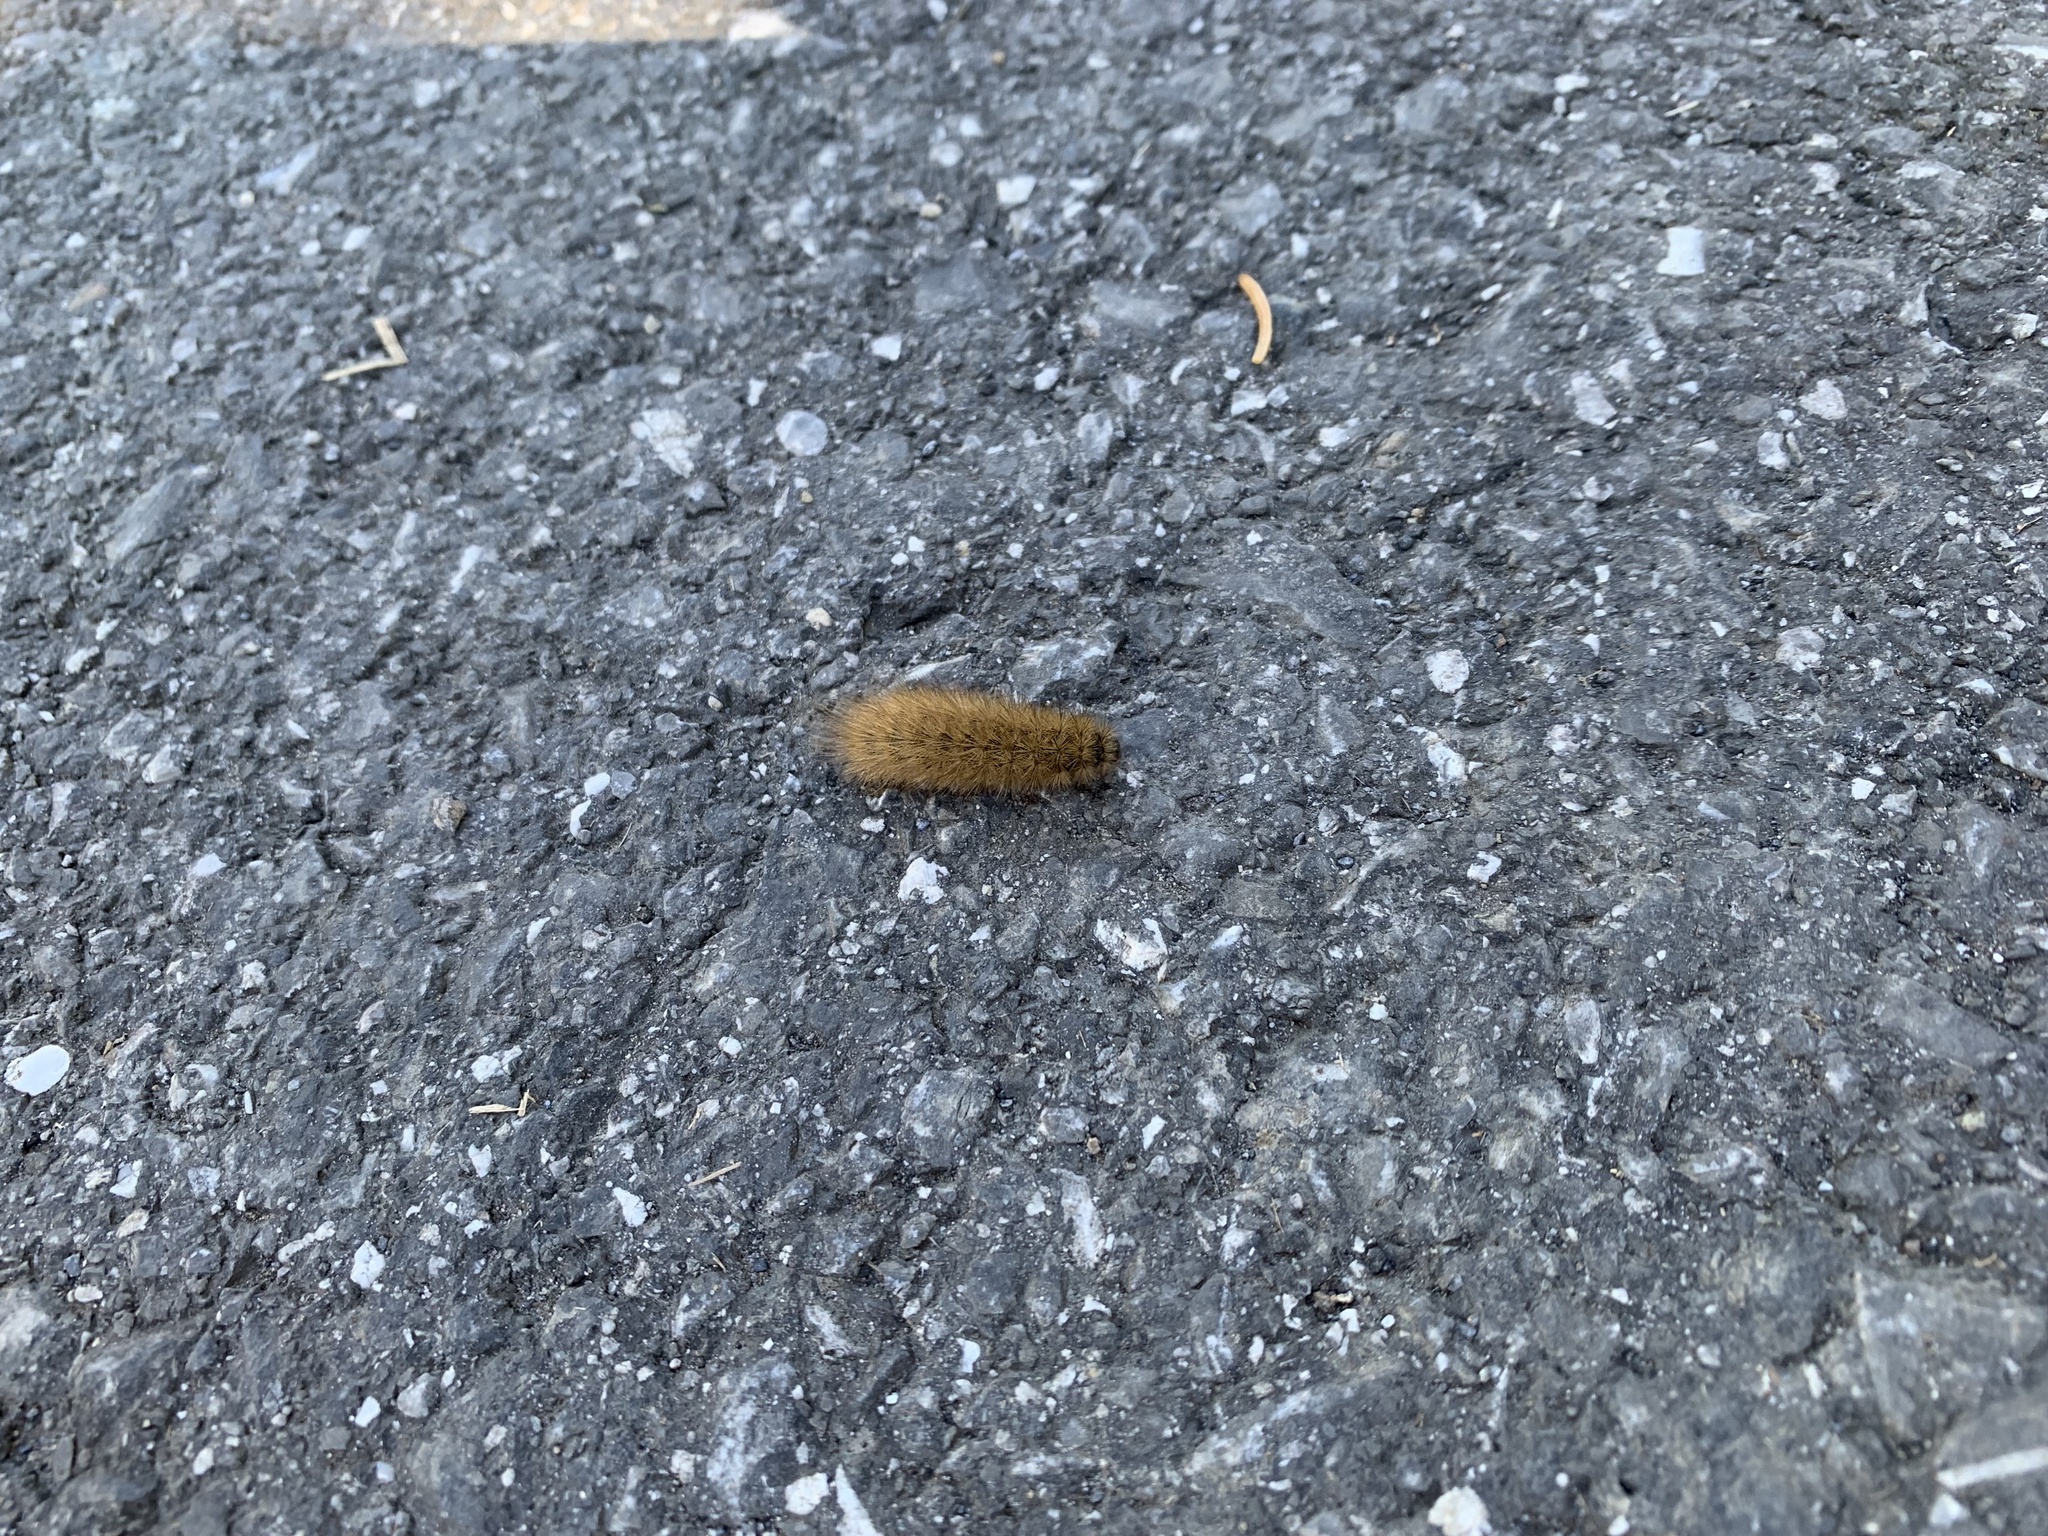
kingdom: Animalia
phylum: Arthropoda
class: Insecta
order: Lepidoptera
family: Erebidae
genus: Phragmatobia
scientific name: Phragmatobia fuliginosa
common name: Ruby tiger
